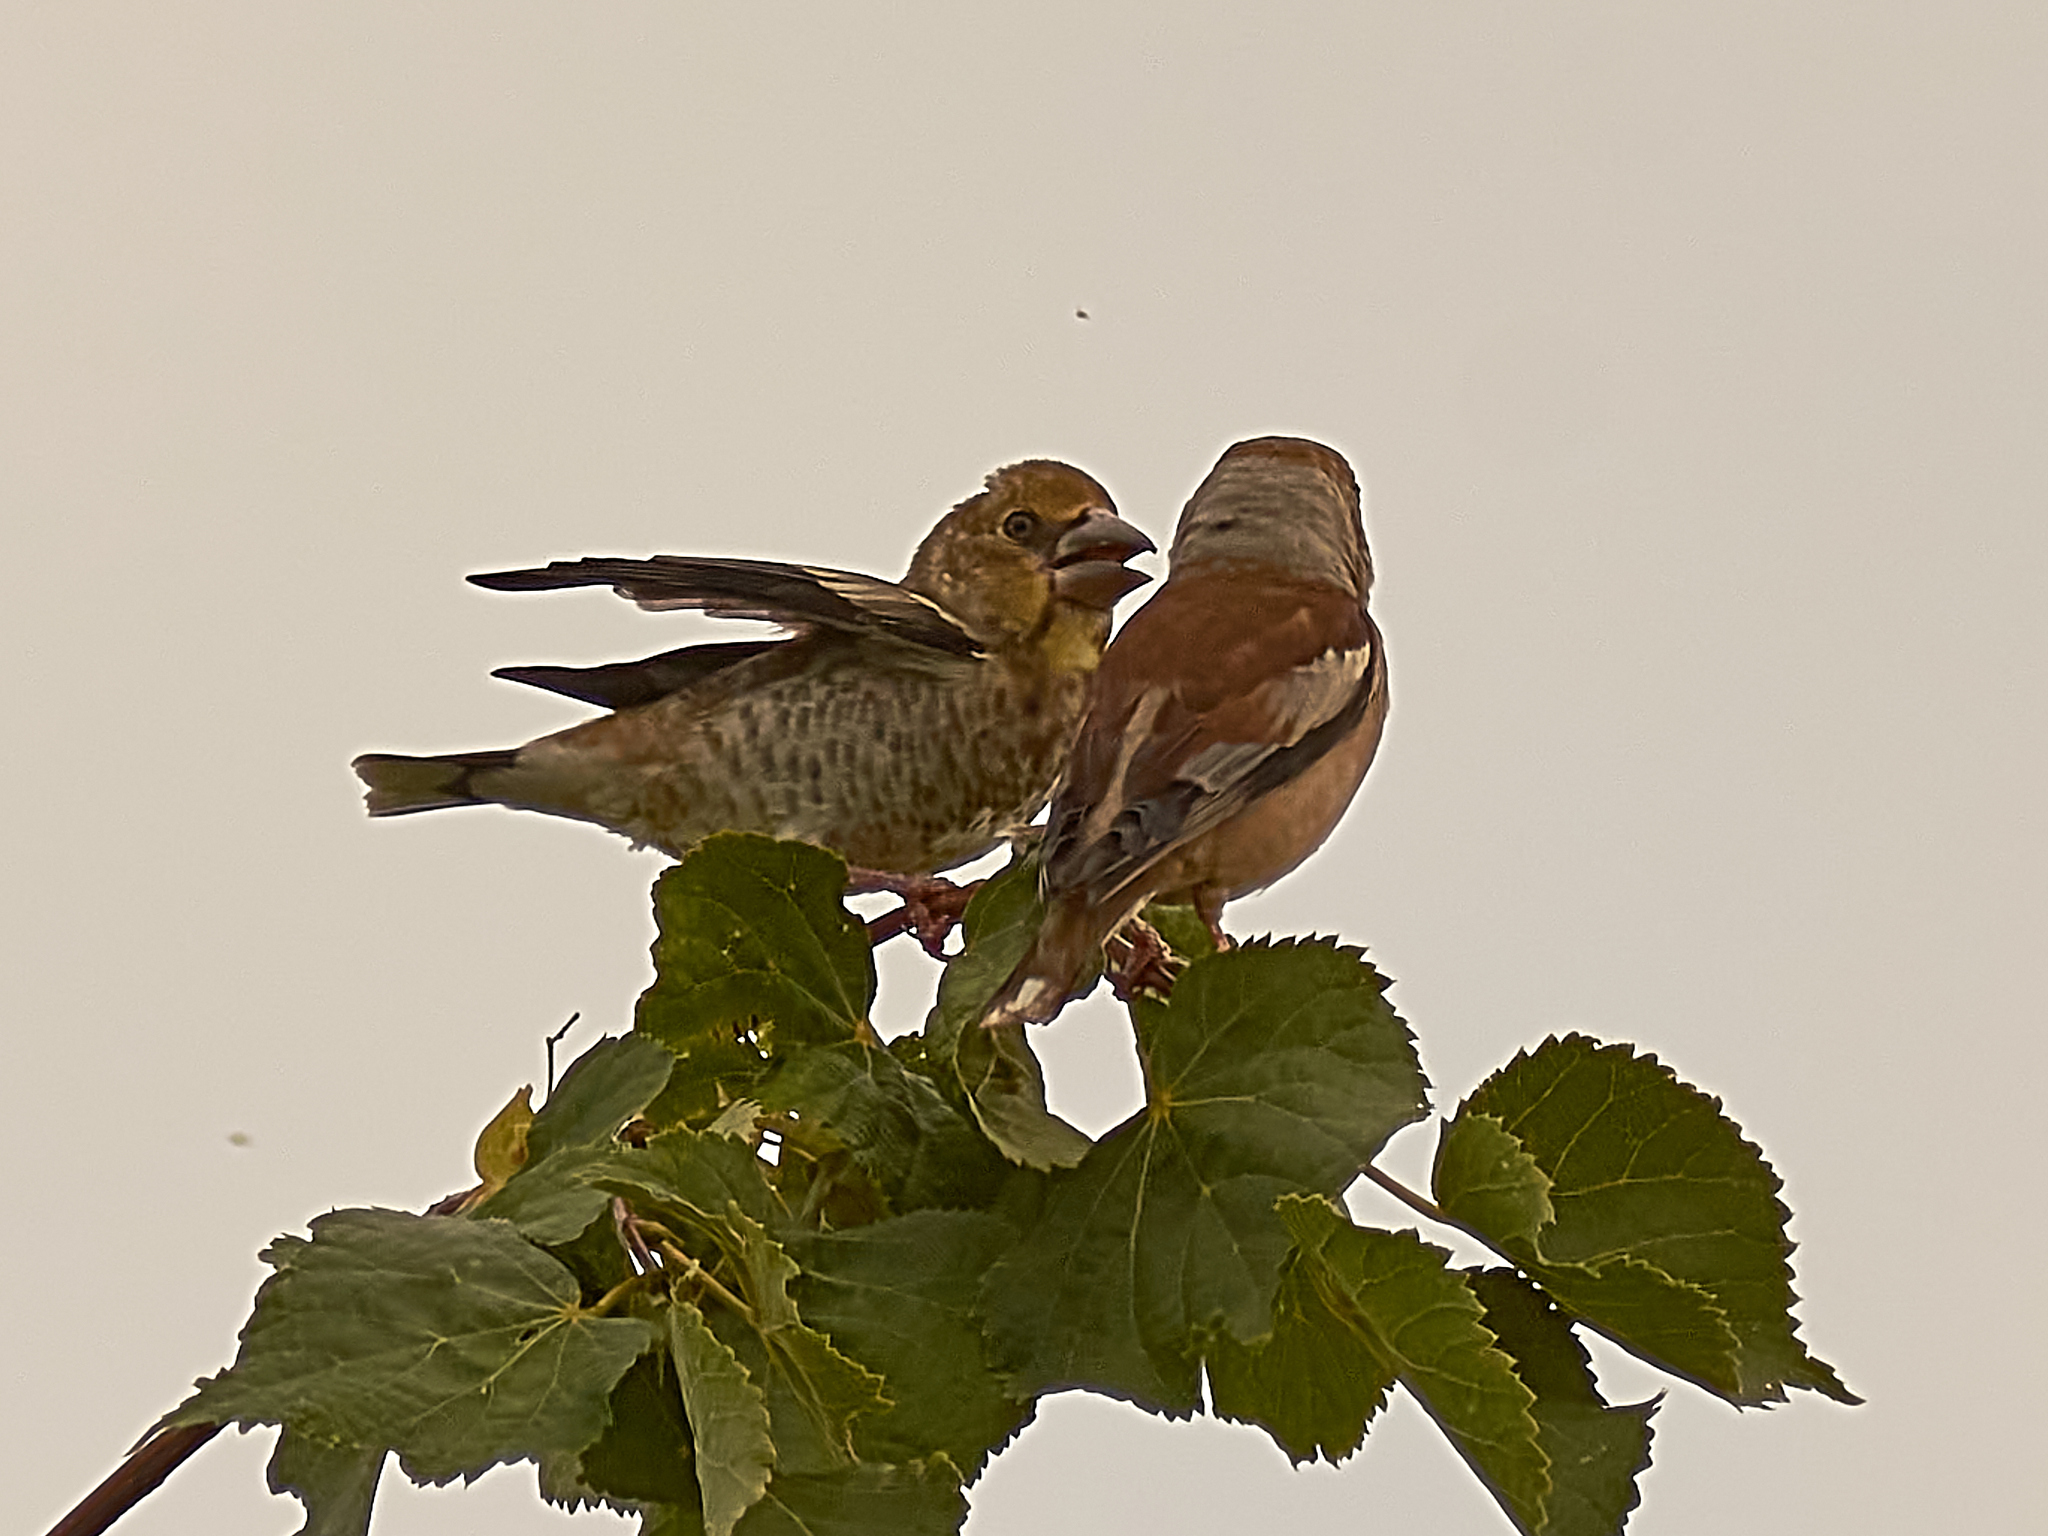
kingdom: Animalia
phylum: Chordata
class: Aves
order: Passeriformes
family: Fringillidae
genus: Coccothraustes
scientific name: Coccothraustes coccothraustes
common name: Hawfinch
